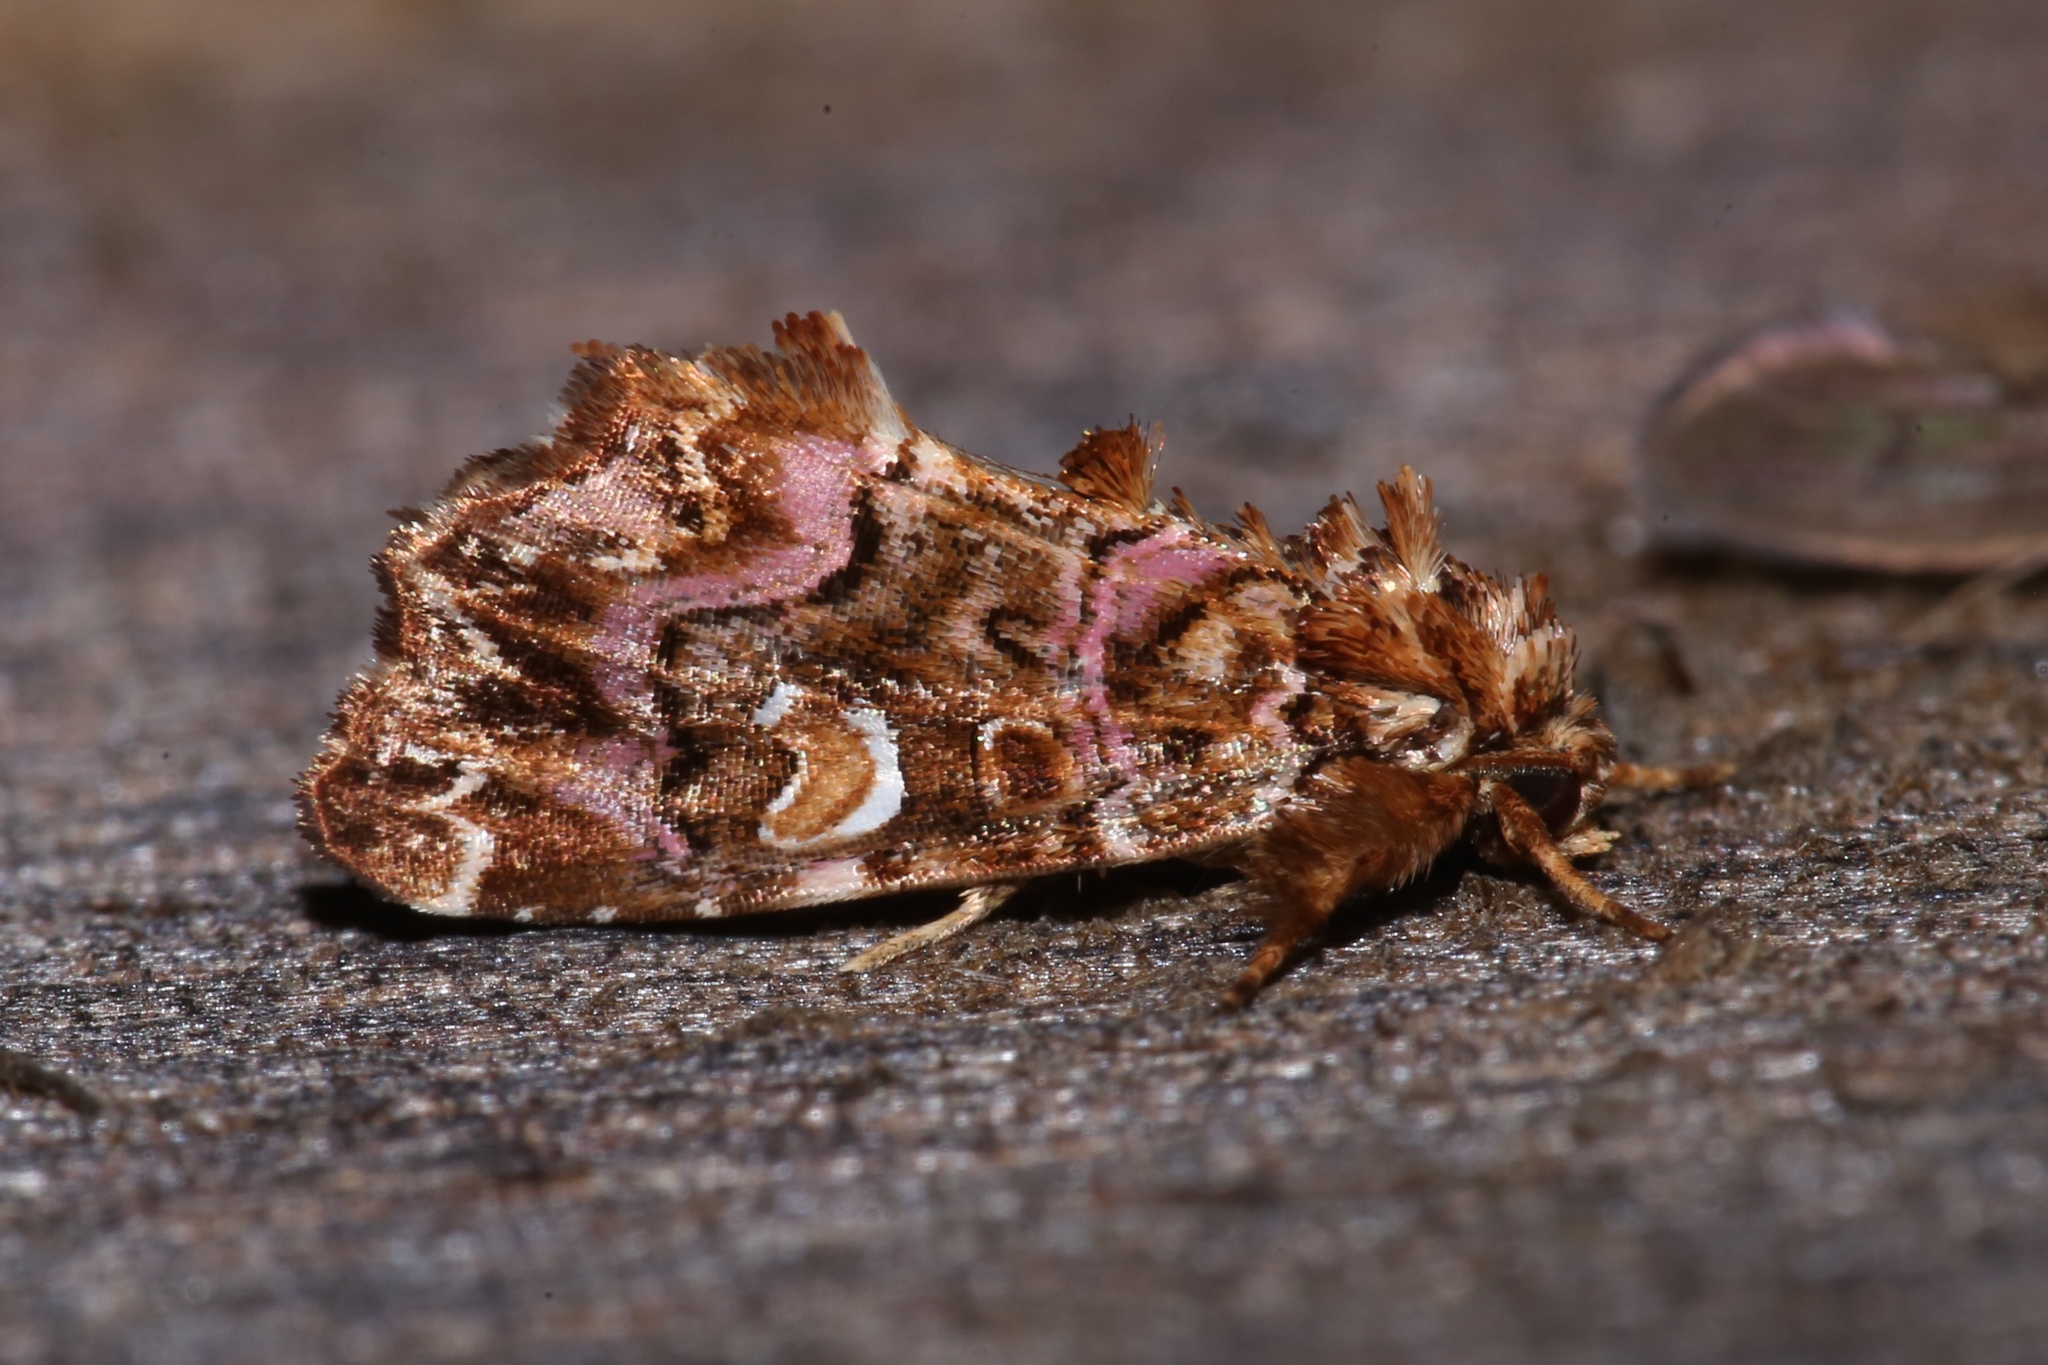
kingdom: Animalia
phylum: Arthropoda
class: Insecta
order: Lepidoptera
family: Noctuidae
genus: Callopistria
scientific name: Callopistria mollissima
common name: Pink-shaded fern moth
